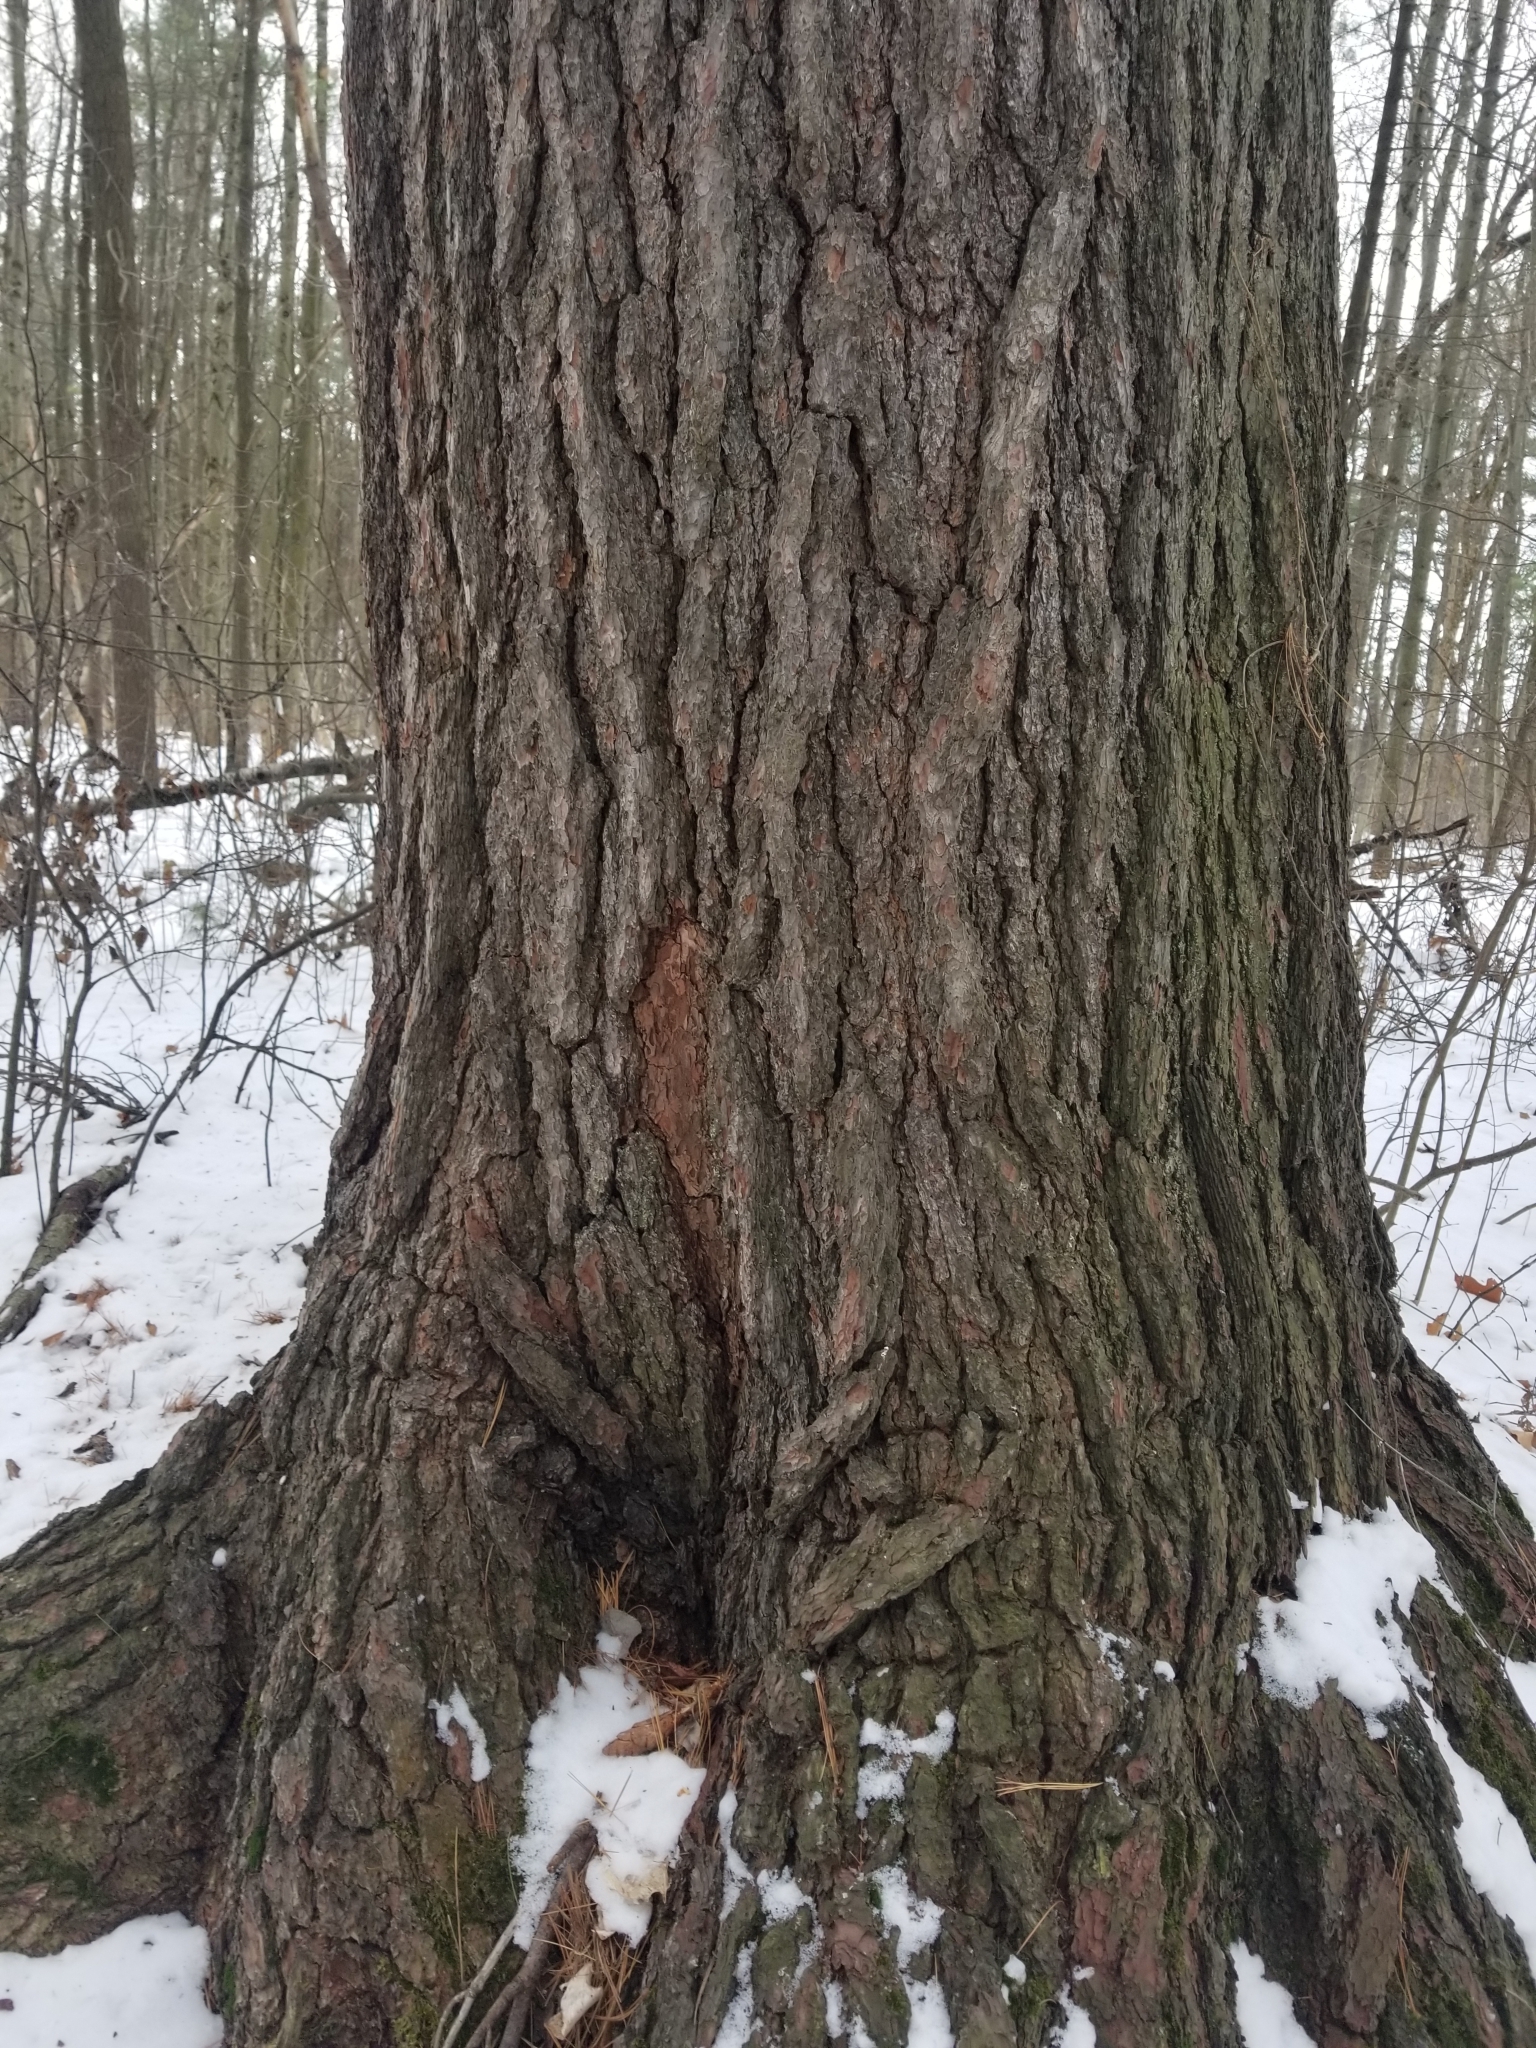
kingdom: Plantae
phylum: Tracheophyta
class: Pinopsida
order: Pinales
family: Pinaceae
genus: Pinus
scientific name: Pinus strobus
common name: Weymouth pine
